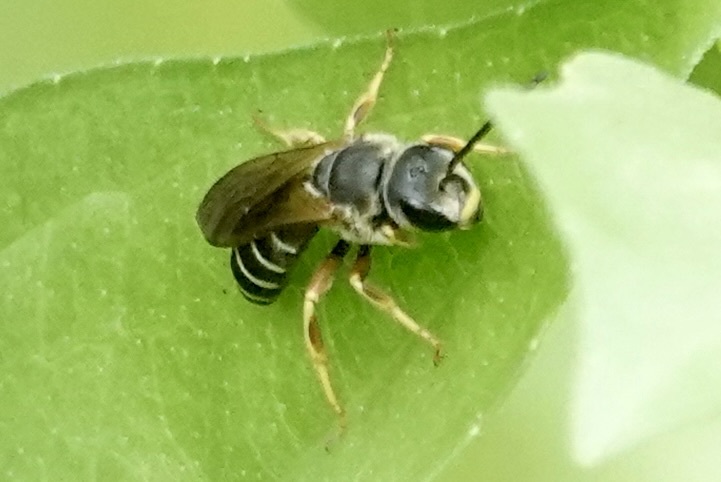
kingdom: Animalia
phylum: Arthropoda
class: Insecta
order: Hymenoptera
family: Halictidae
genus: Halictus
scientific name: Halictus parallelus
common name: Parallel-striped sweat bee
